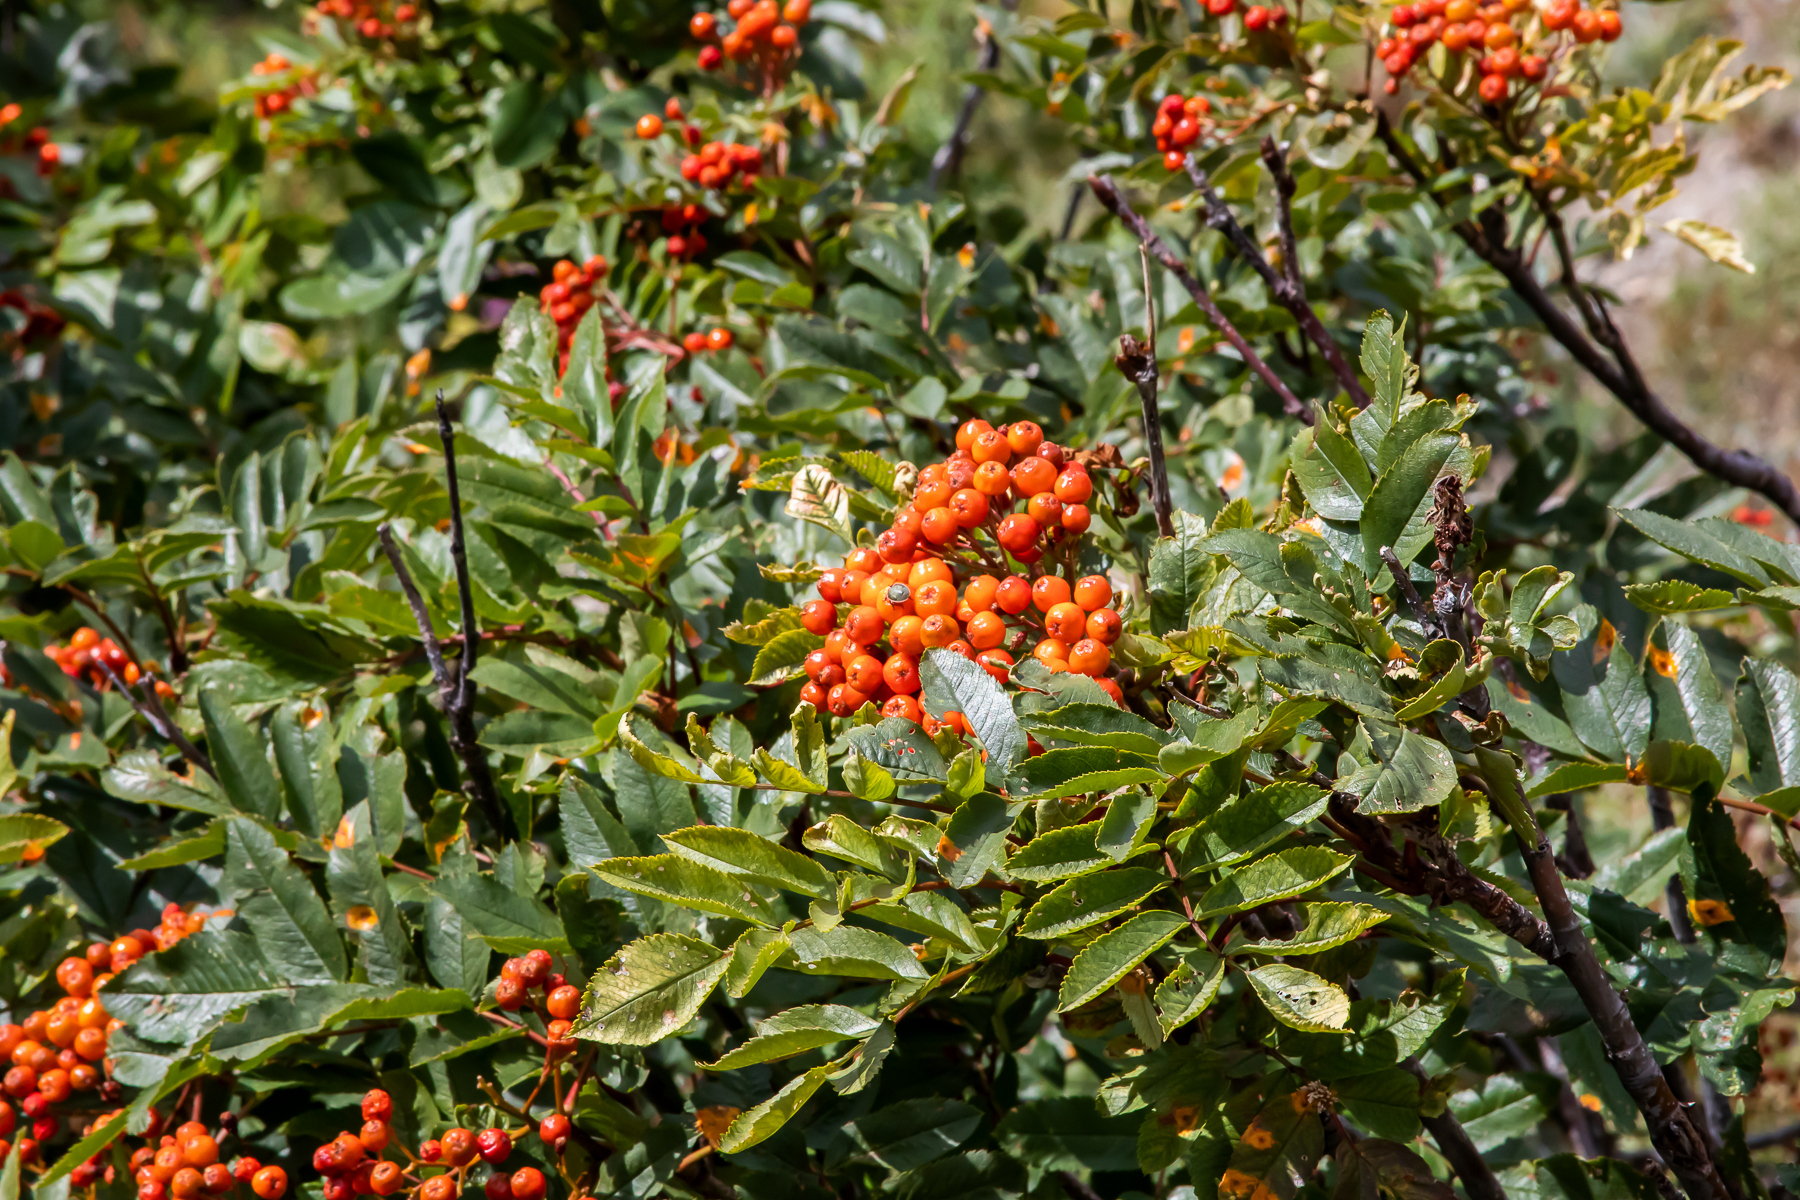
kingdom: Plantae
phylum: Tracheophyta
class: Magnoliopsida
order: Rosales
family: Rosaceae
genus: Sorbus
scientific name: Sorbus aucuparia
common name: Rowan
